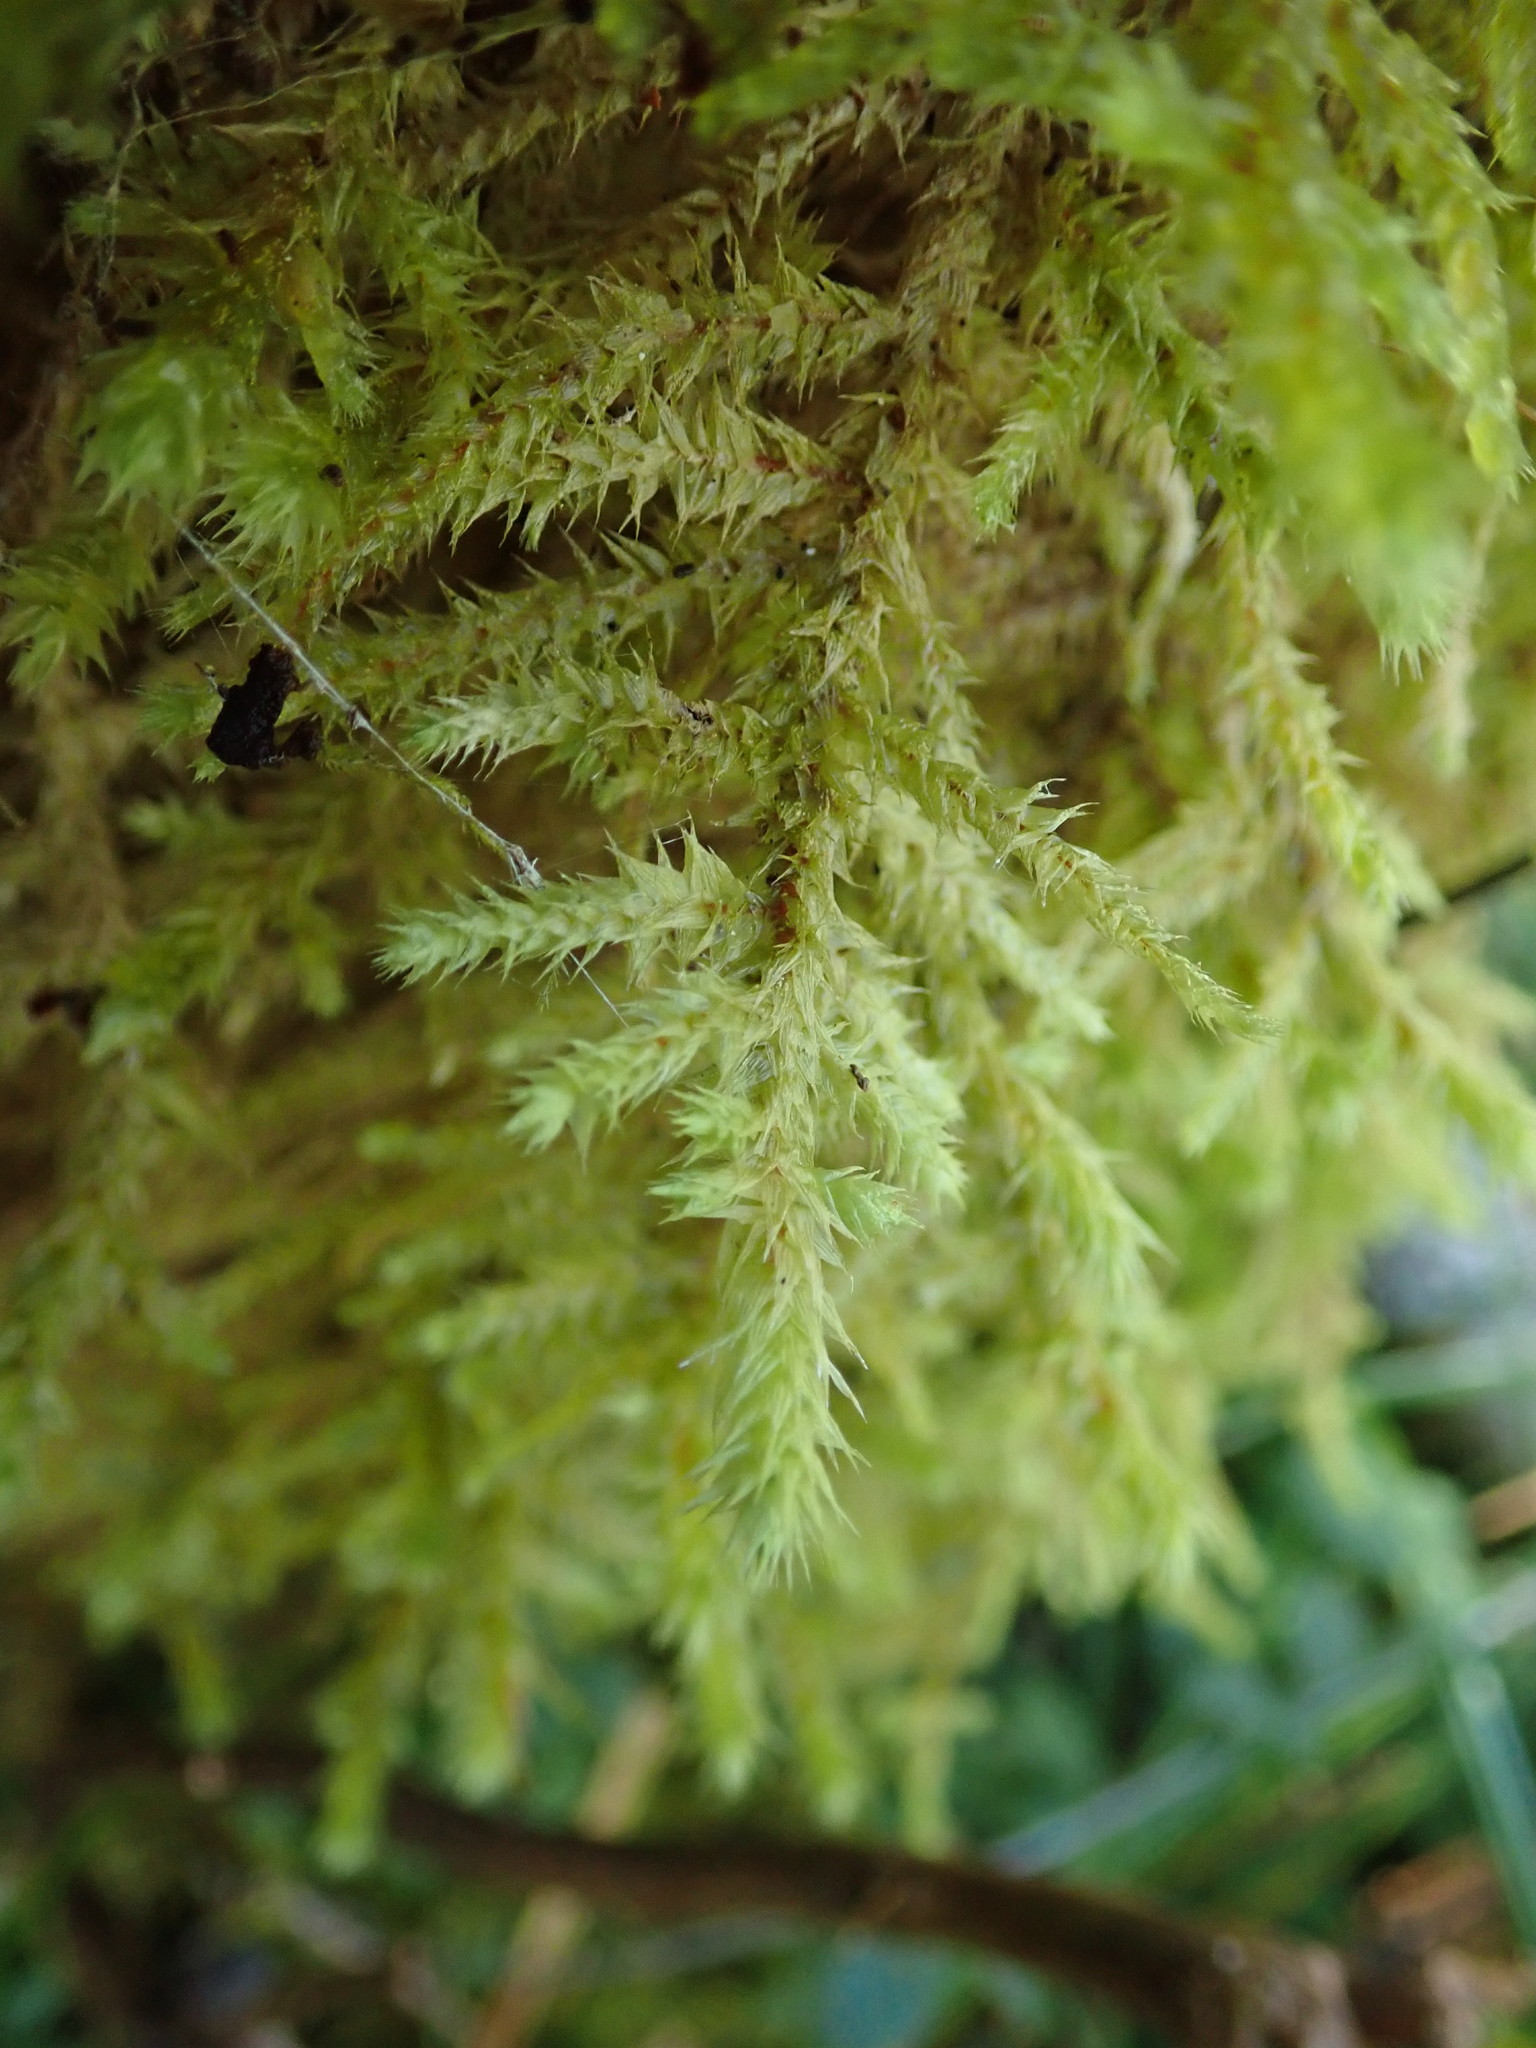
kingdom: Plantae
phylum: Bryophyta
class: Bryopsida
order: Hypnales
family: Hylocomiaceae
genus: Hylocomiadelphus
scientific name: Hylocomiadelphus triquetrus
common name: Rough goose neck moss
